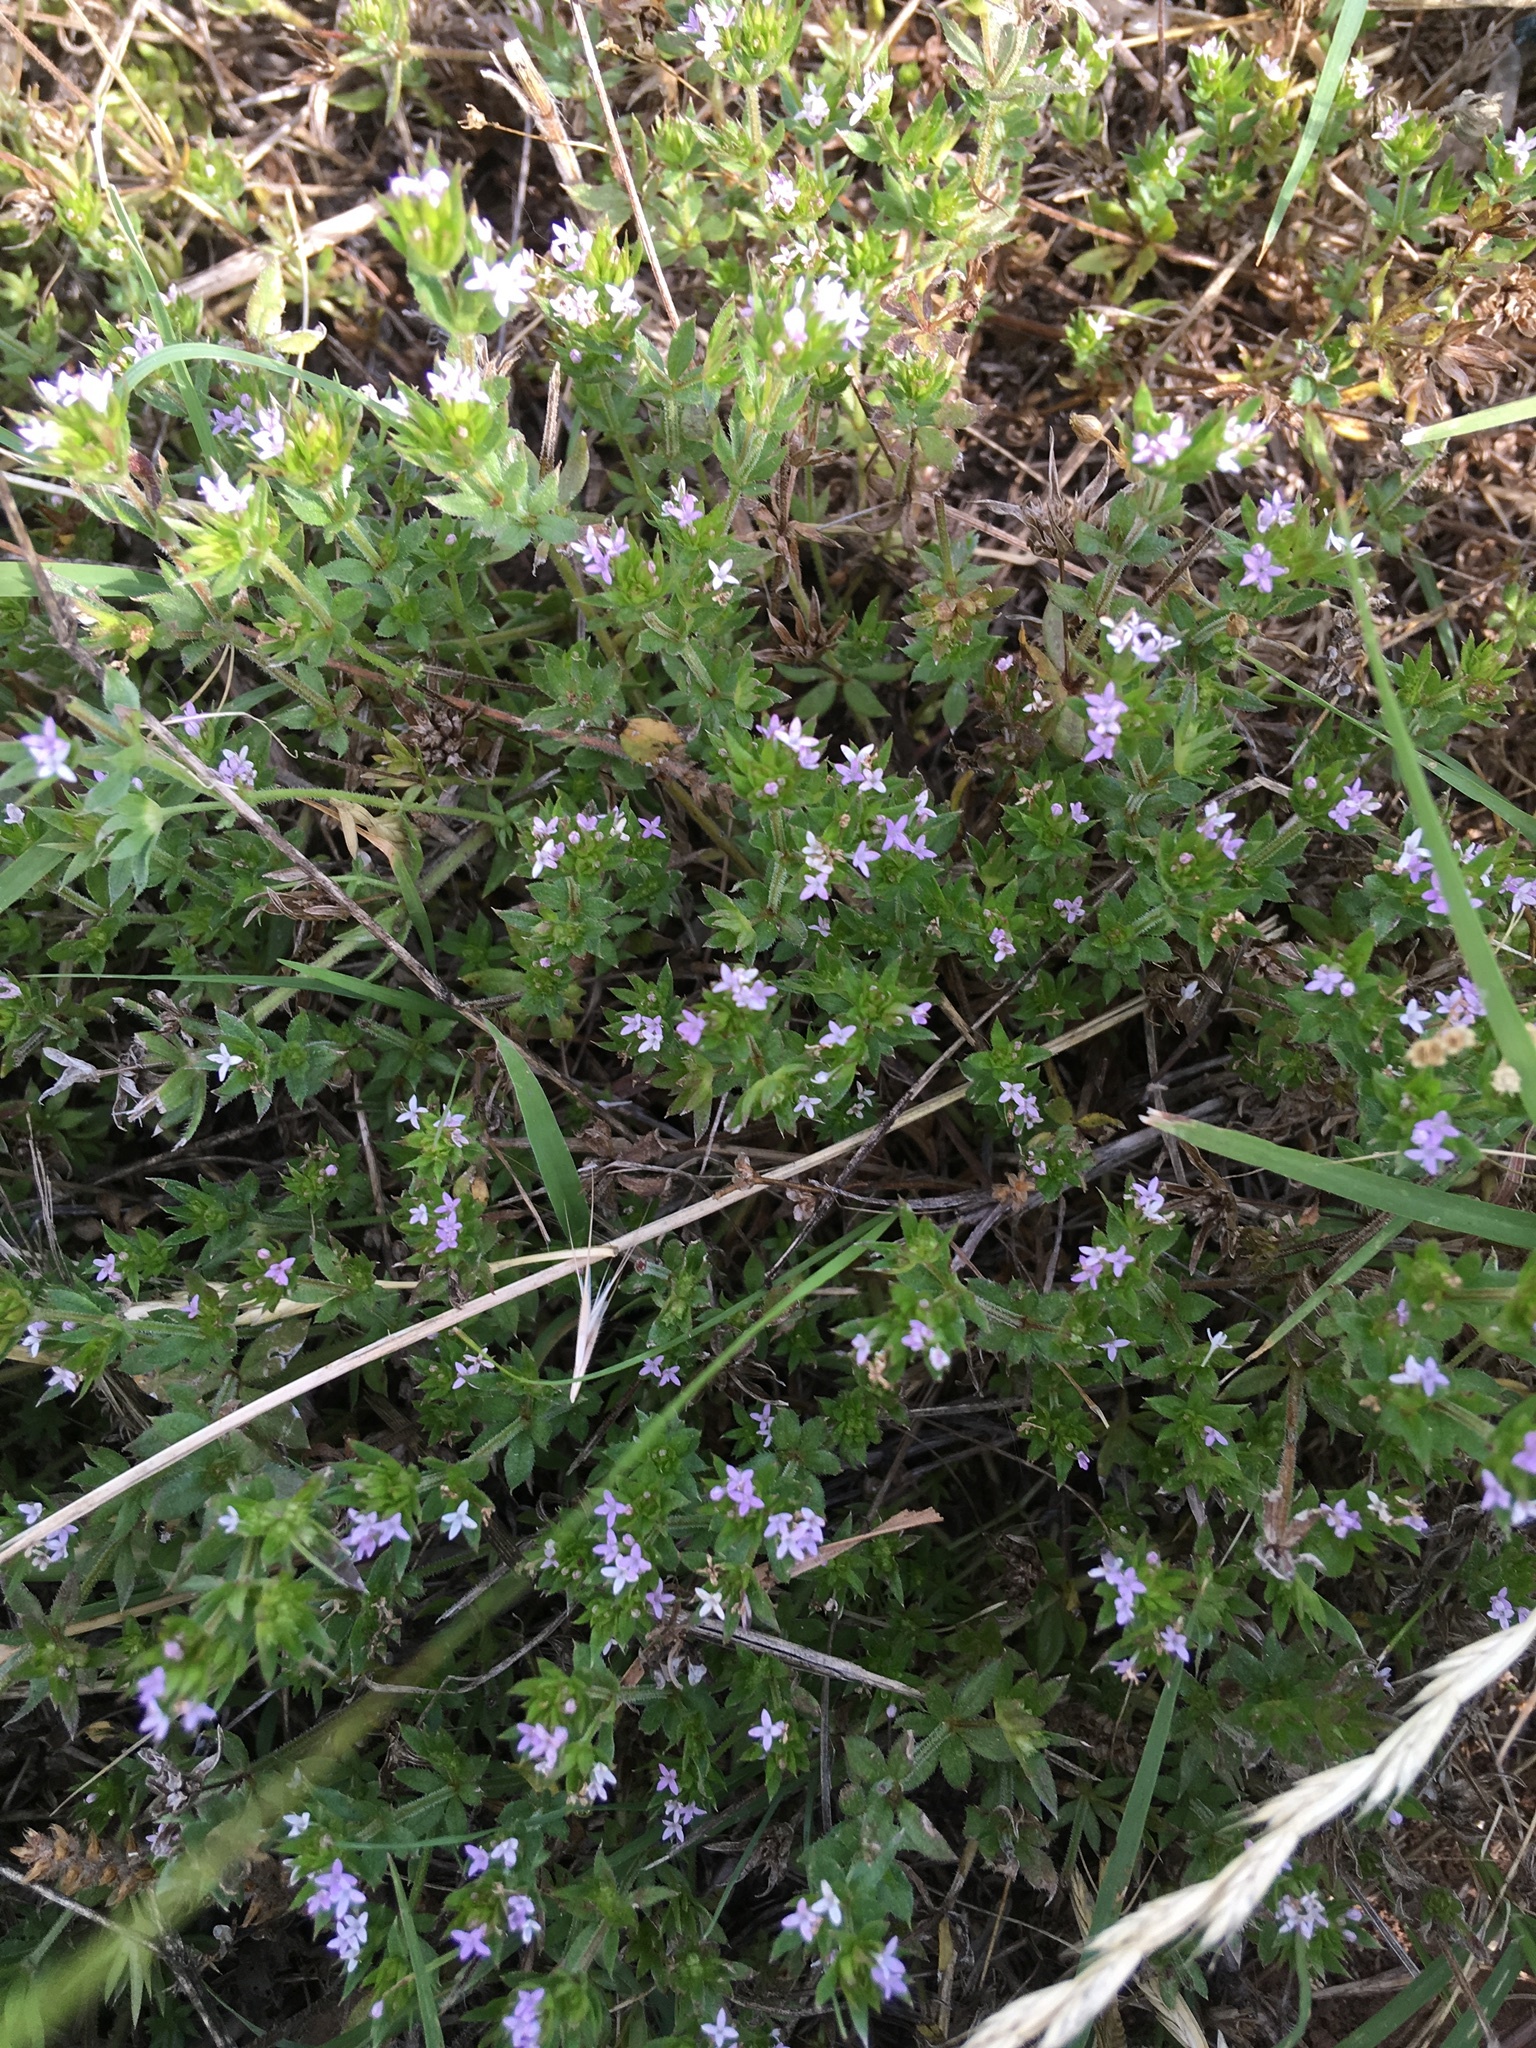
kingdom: Plantae
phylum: Tracheophyta
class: Magnoliopsida
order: Gentianales
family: Rubiaceae
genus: Sherardia
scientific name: Sherardia arvensis
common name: Field madder
